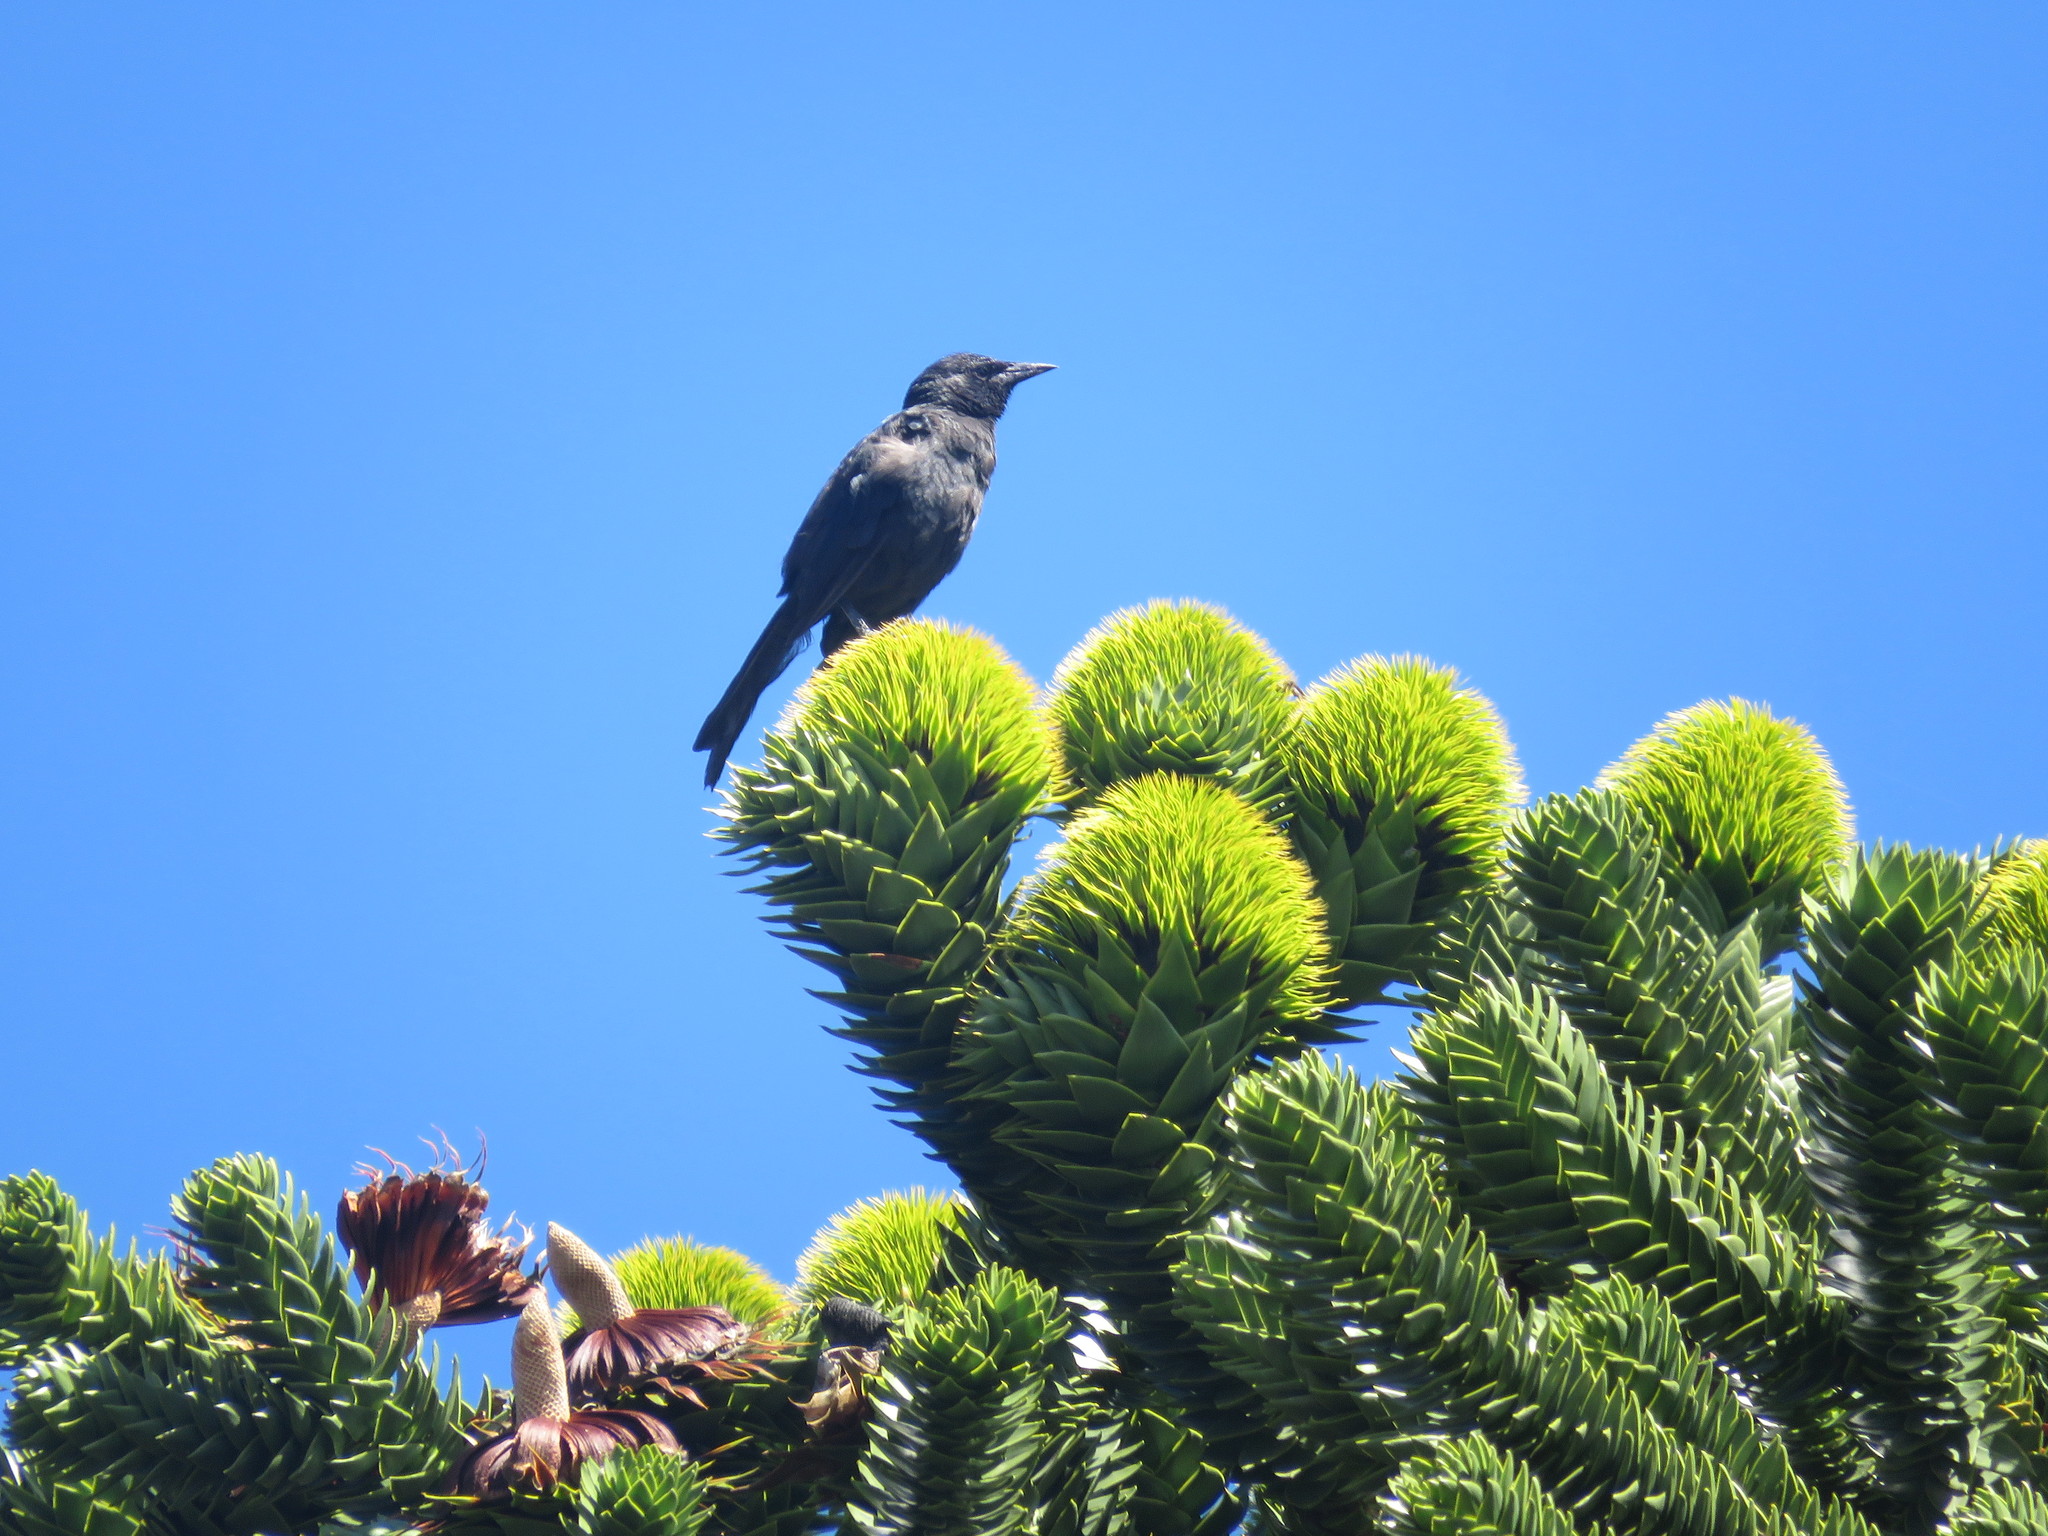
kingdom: Animalia
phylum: Chordata
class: Aves
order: Passeriformes
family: Icteridae
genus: Curaeus
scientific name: Curaeus curaeus
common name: Austral blackbird
